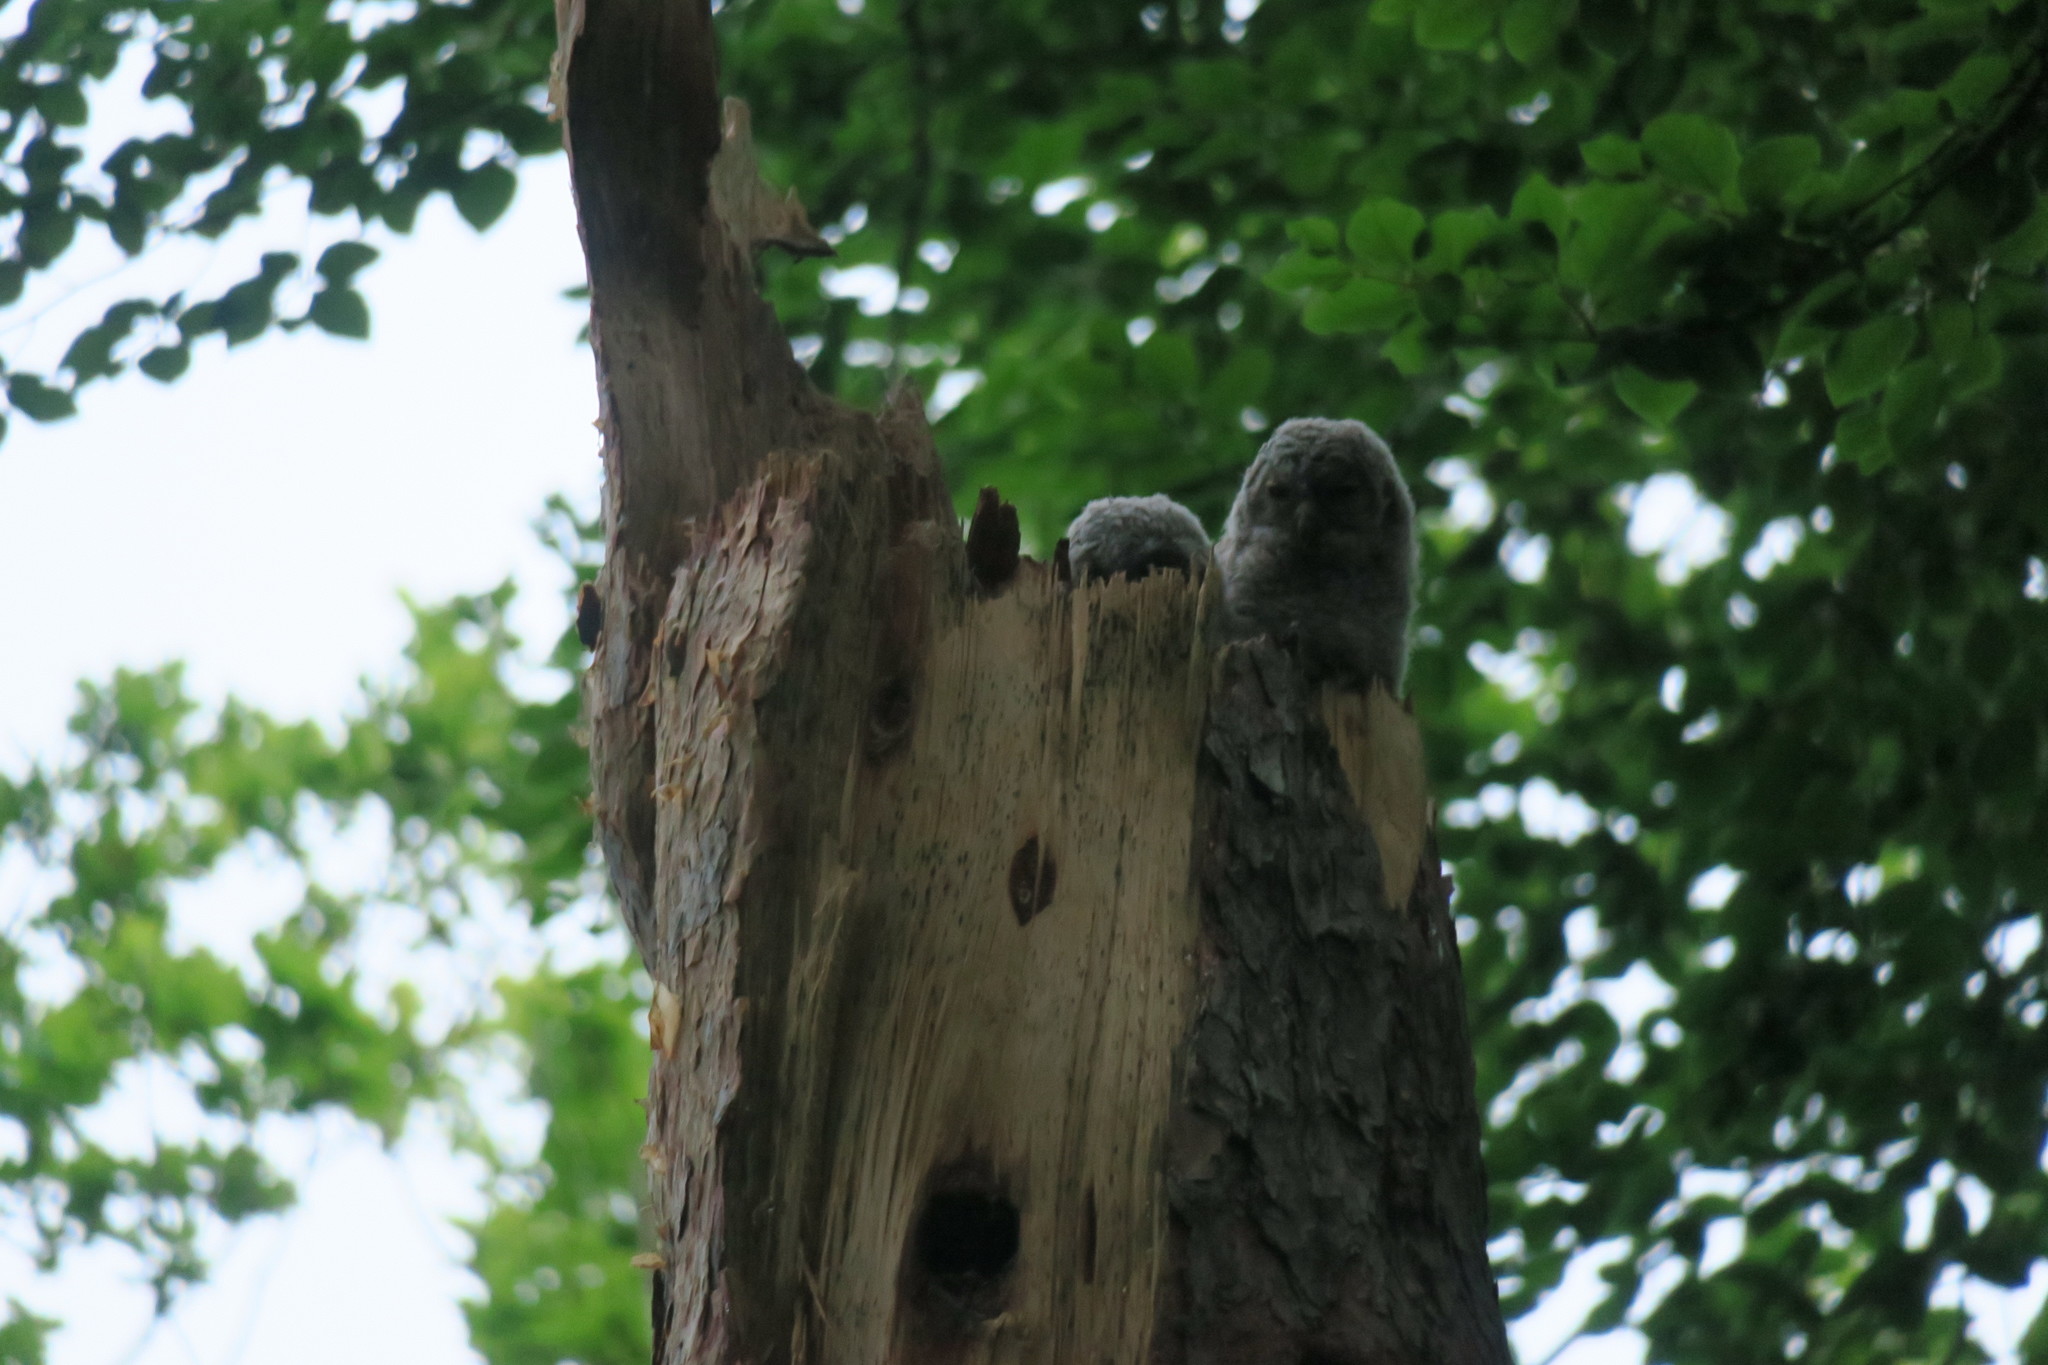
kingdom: Animalia
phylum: Chordata
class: Aves
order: Strigiformes
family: Strigidae
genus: Strix
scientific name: Strix aluco
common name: Tawny owl
